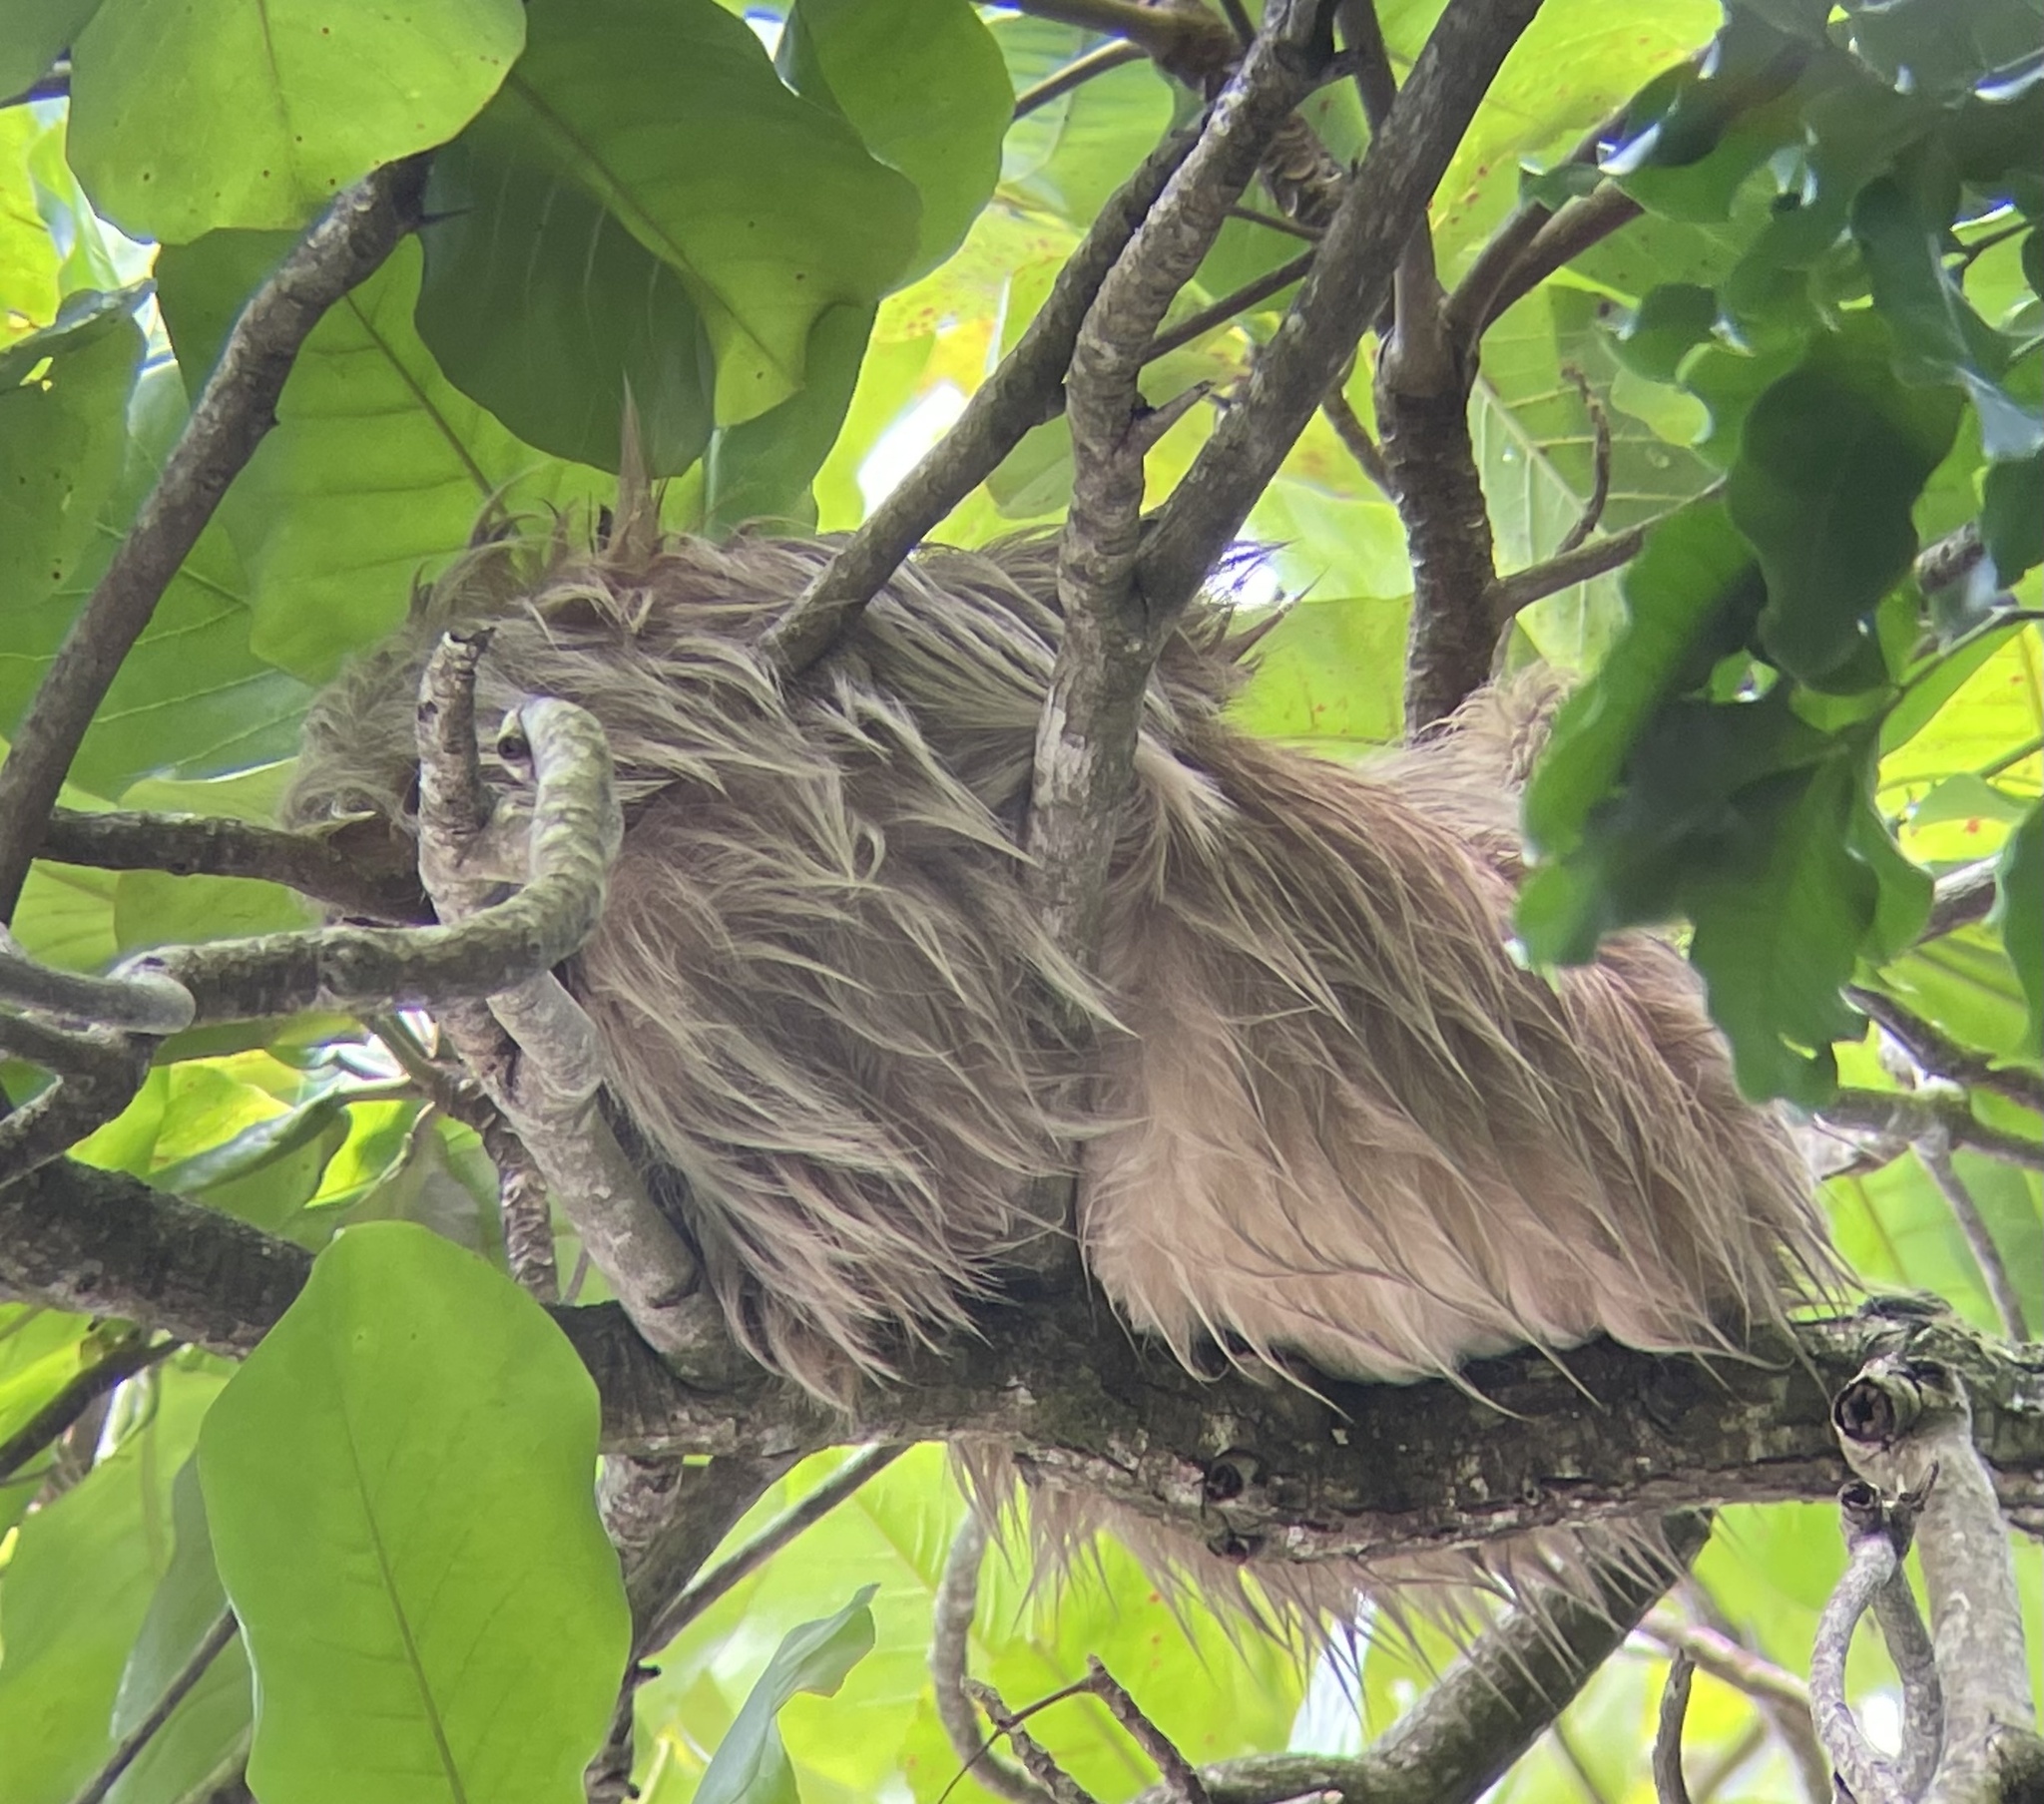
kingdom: Animalia
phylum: Chordata
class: Mammalia
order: Pilosa
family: Megalonychidae
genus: Choloepus
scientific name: Choloepus hoffmanni
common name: Hoffmann's two-toed sloth
